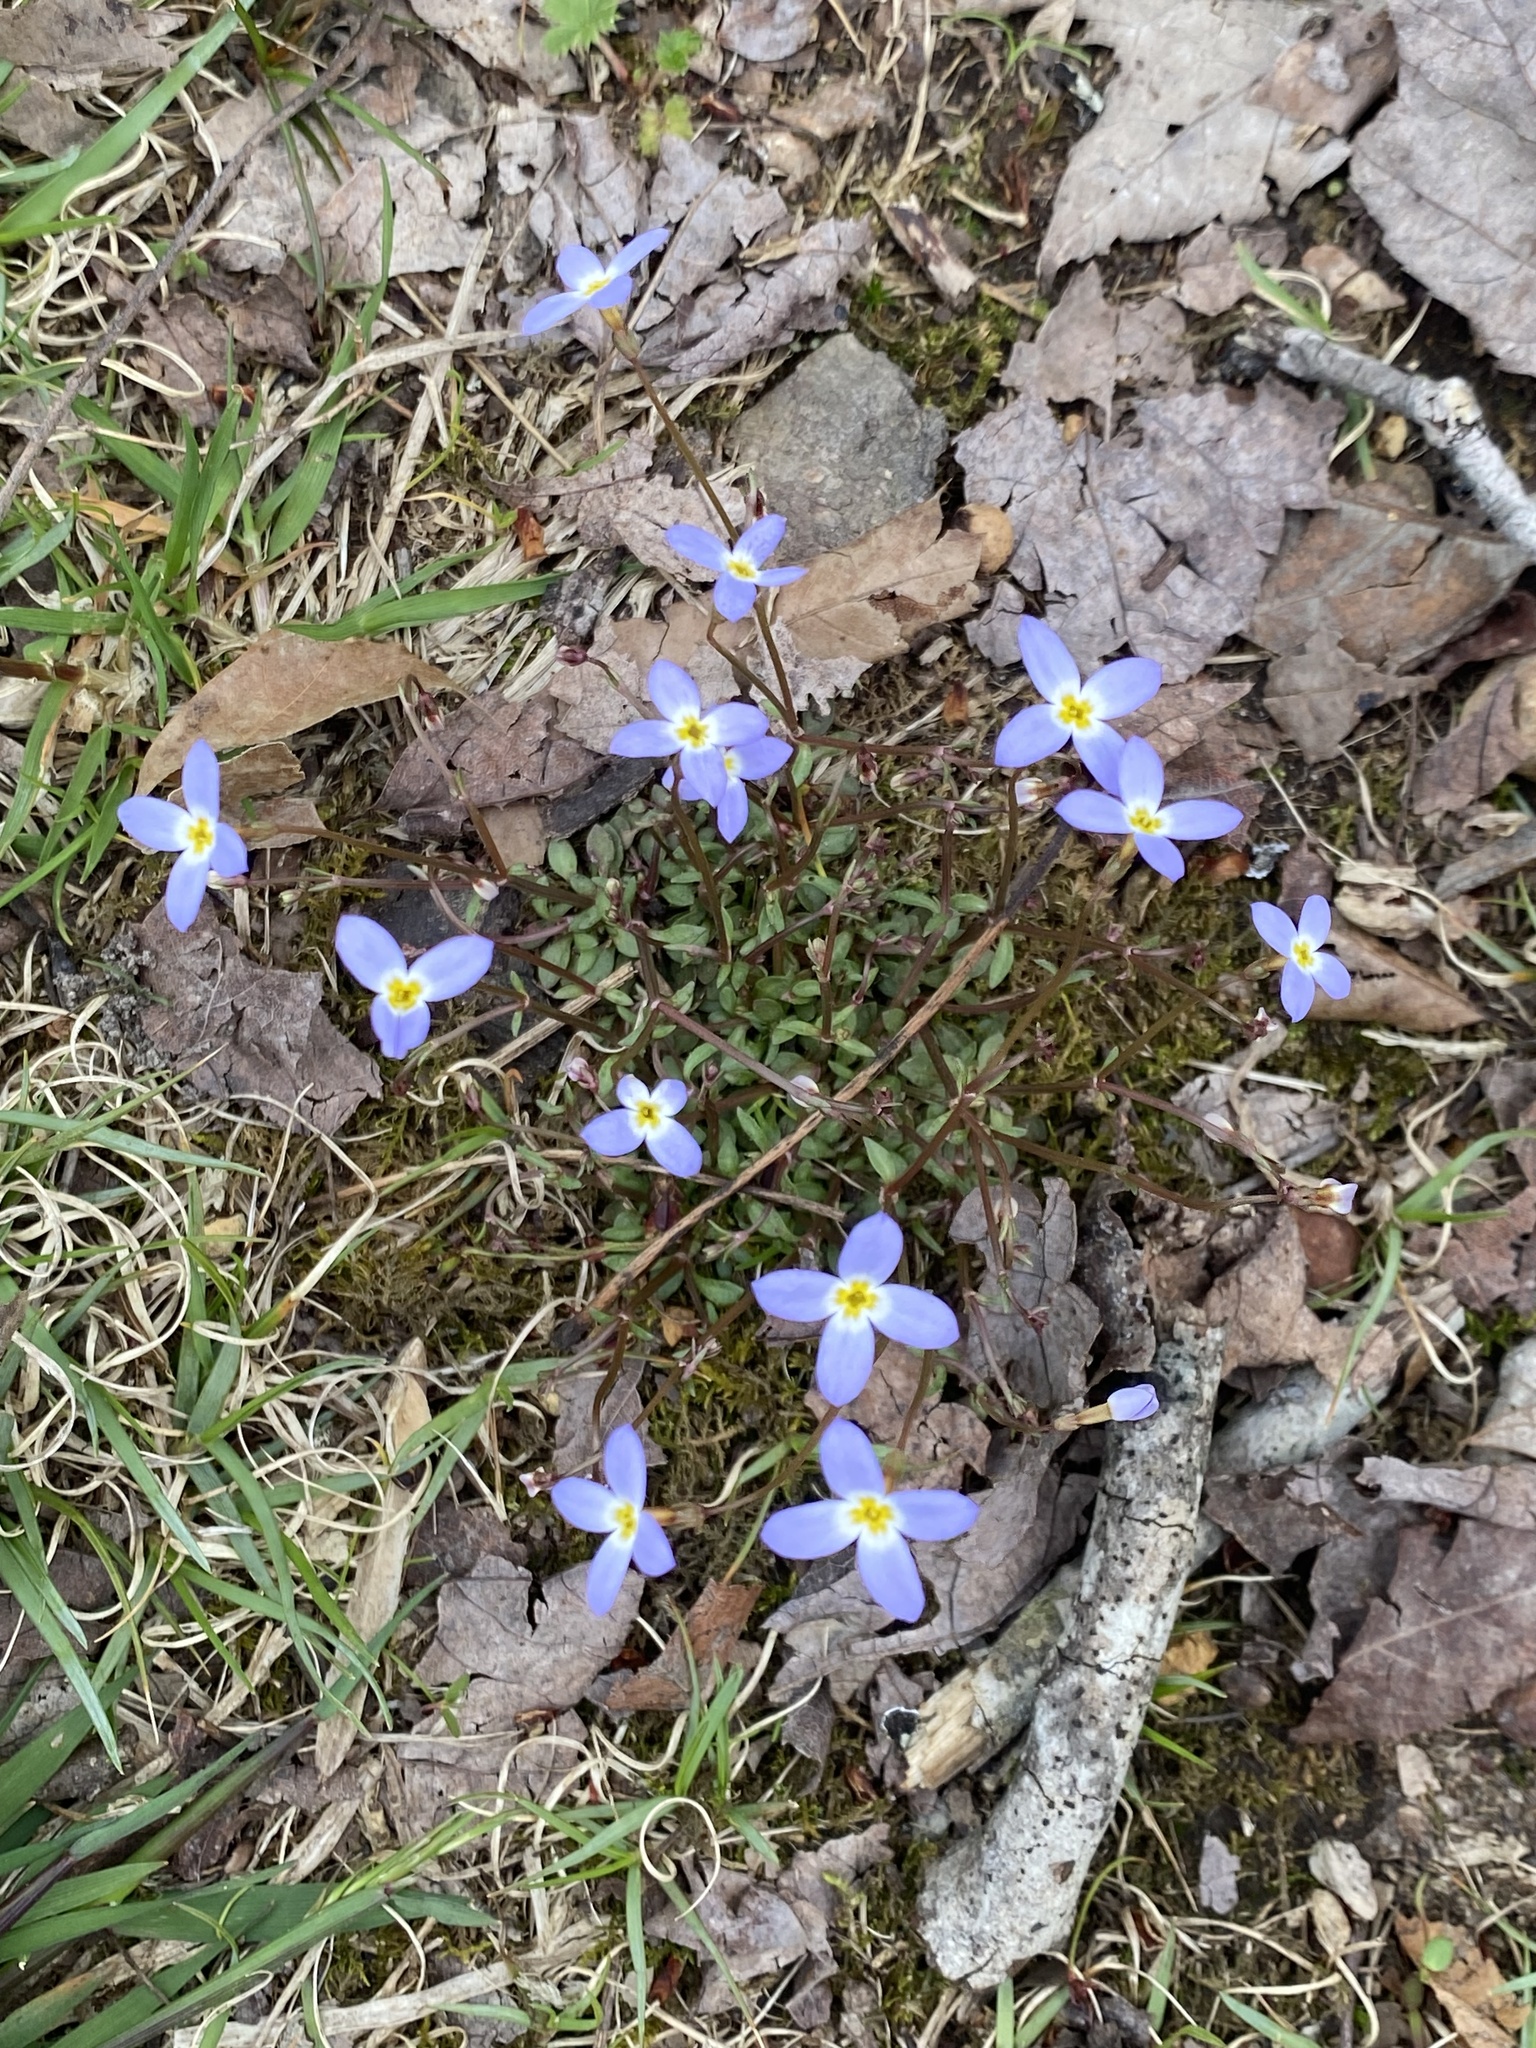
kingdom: Plantae
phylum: Tracheophyta
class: Magnoliopsida
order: Gentianales
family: Rubiaceae
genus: Houstonia
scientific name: Houstonia caerulea
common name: Bluets
